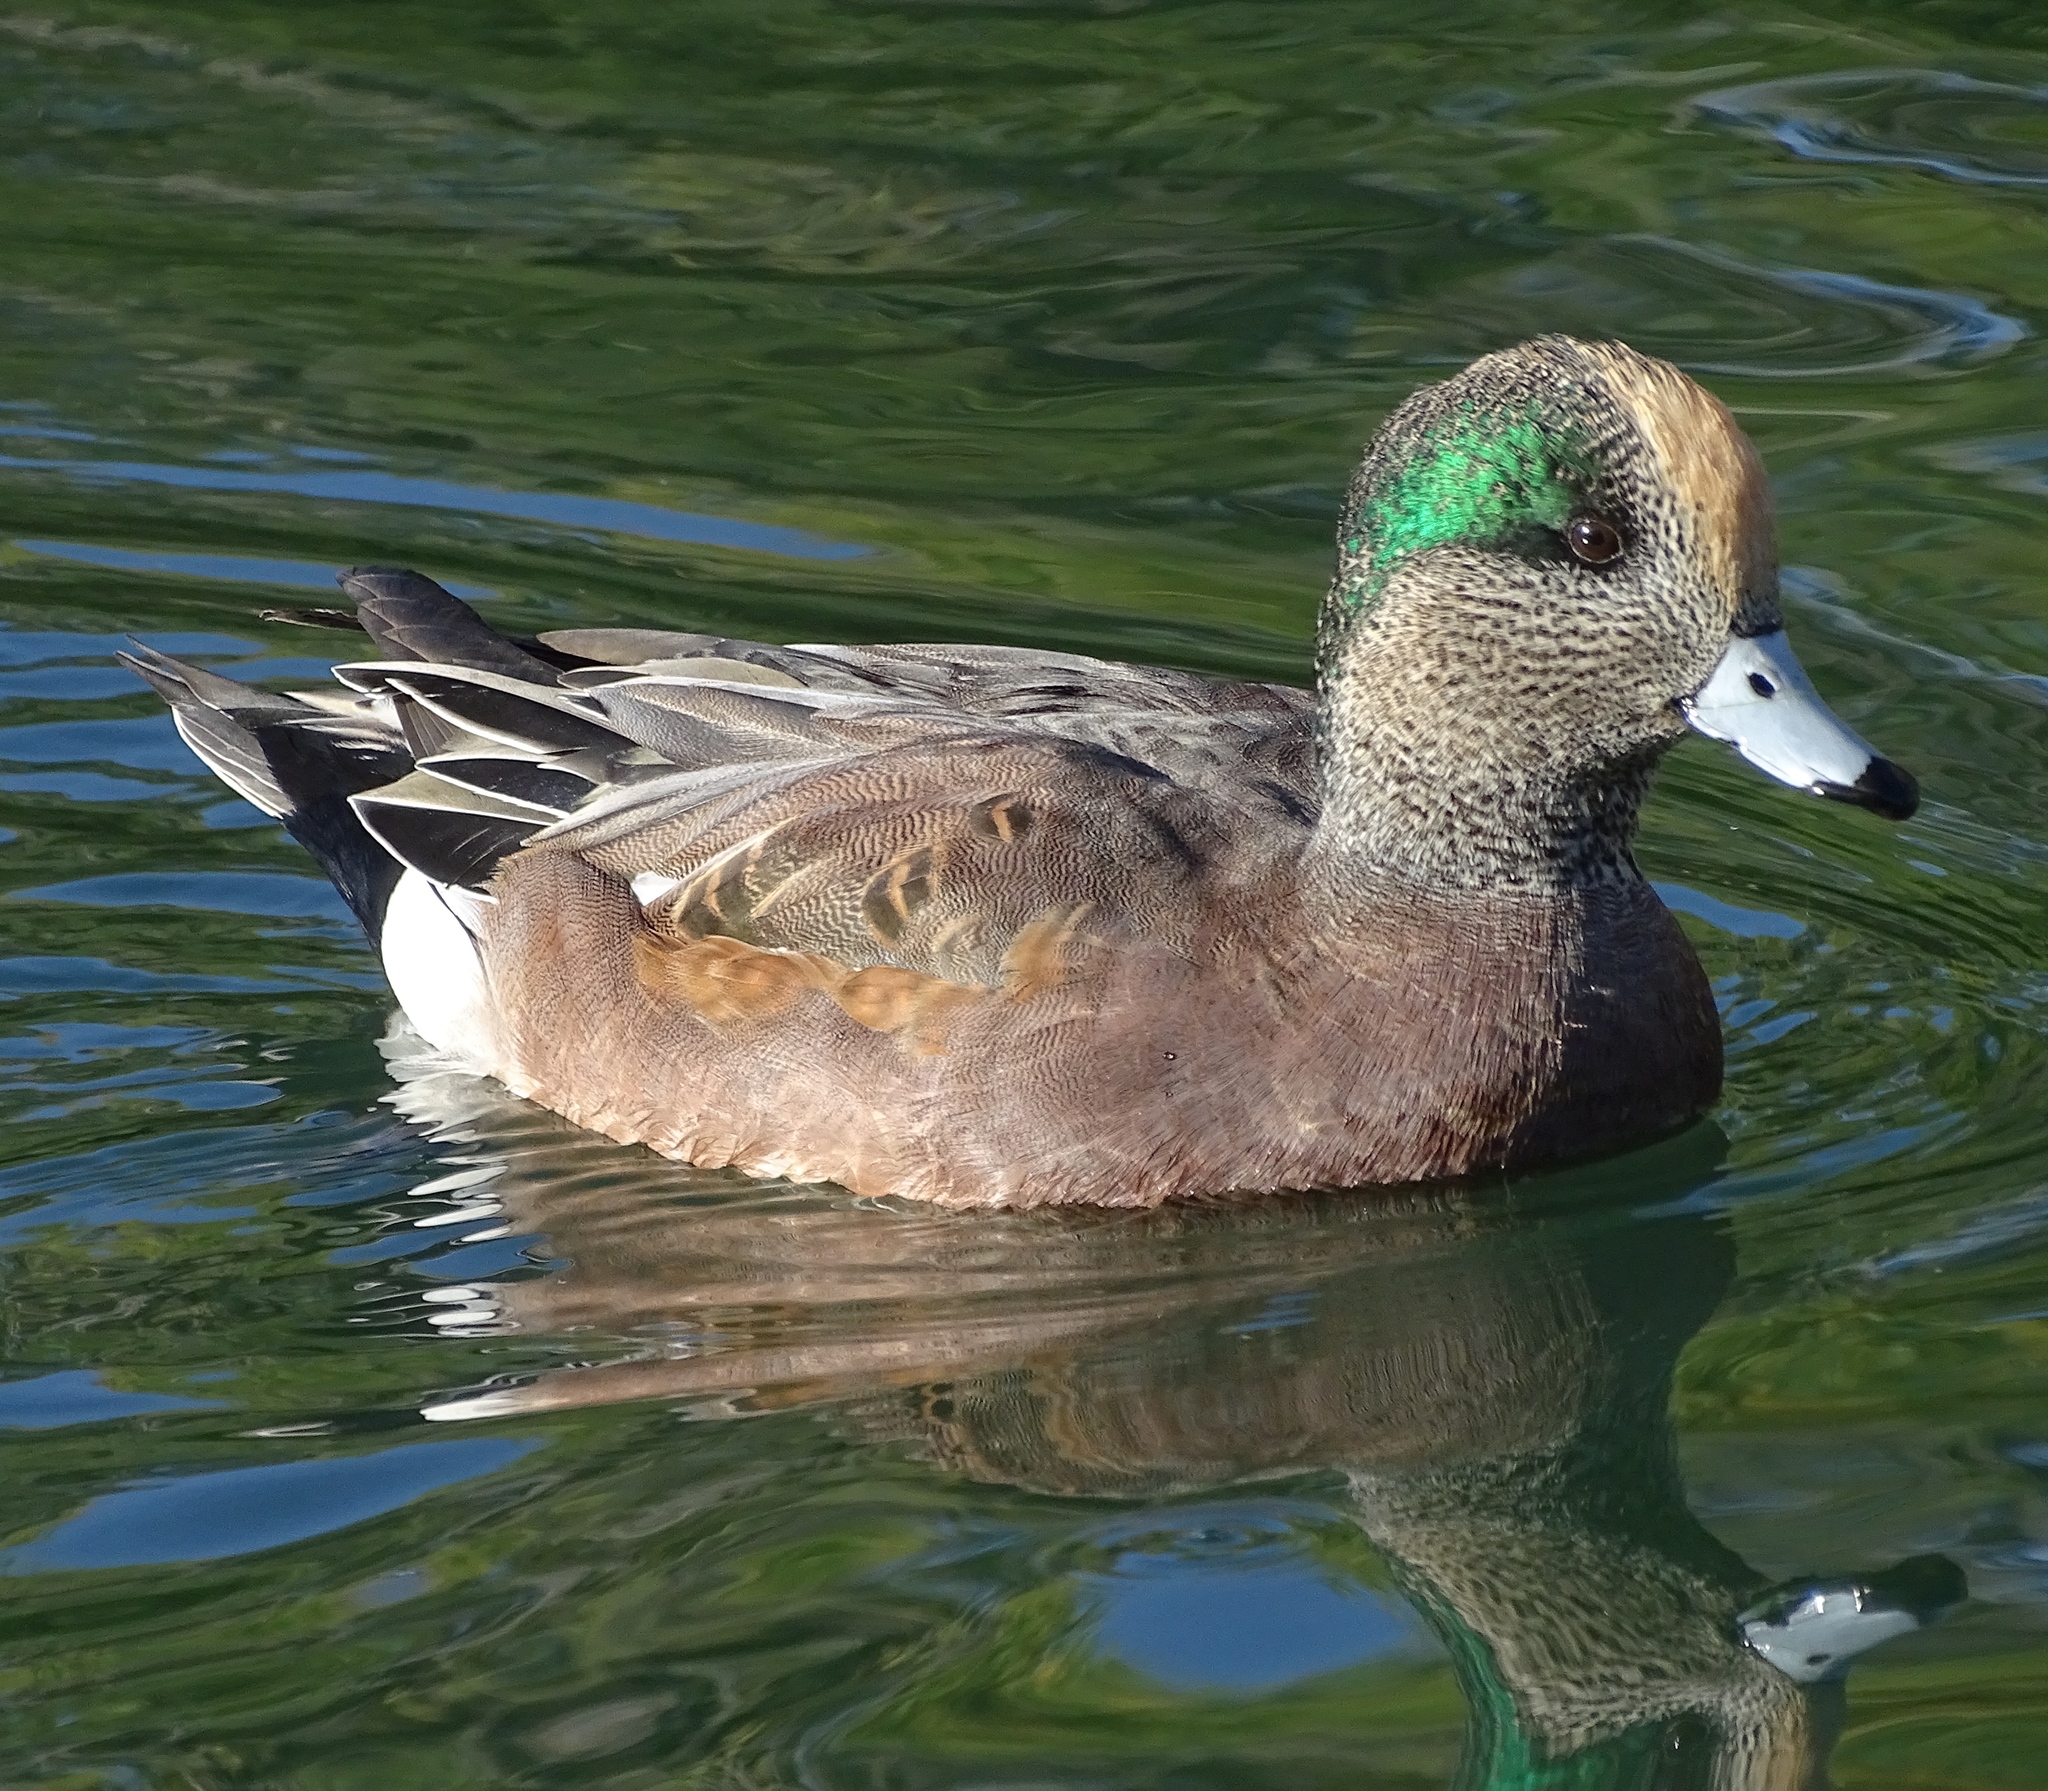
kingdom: Animalia
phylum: Chordata
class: Aves
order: Anseriformes
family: Anatidae
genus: Mareca
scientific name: Mareca americana
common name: American wigeon
